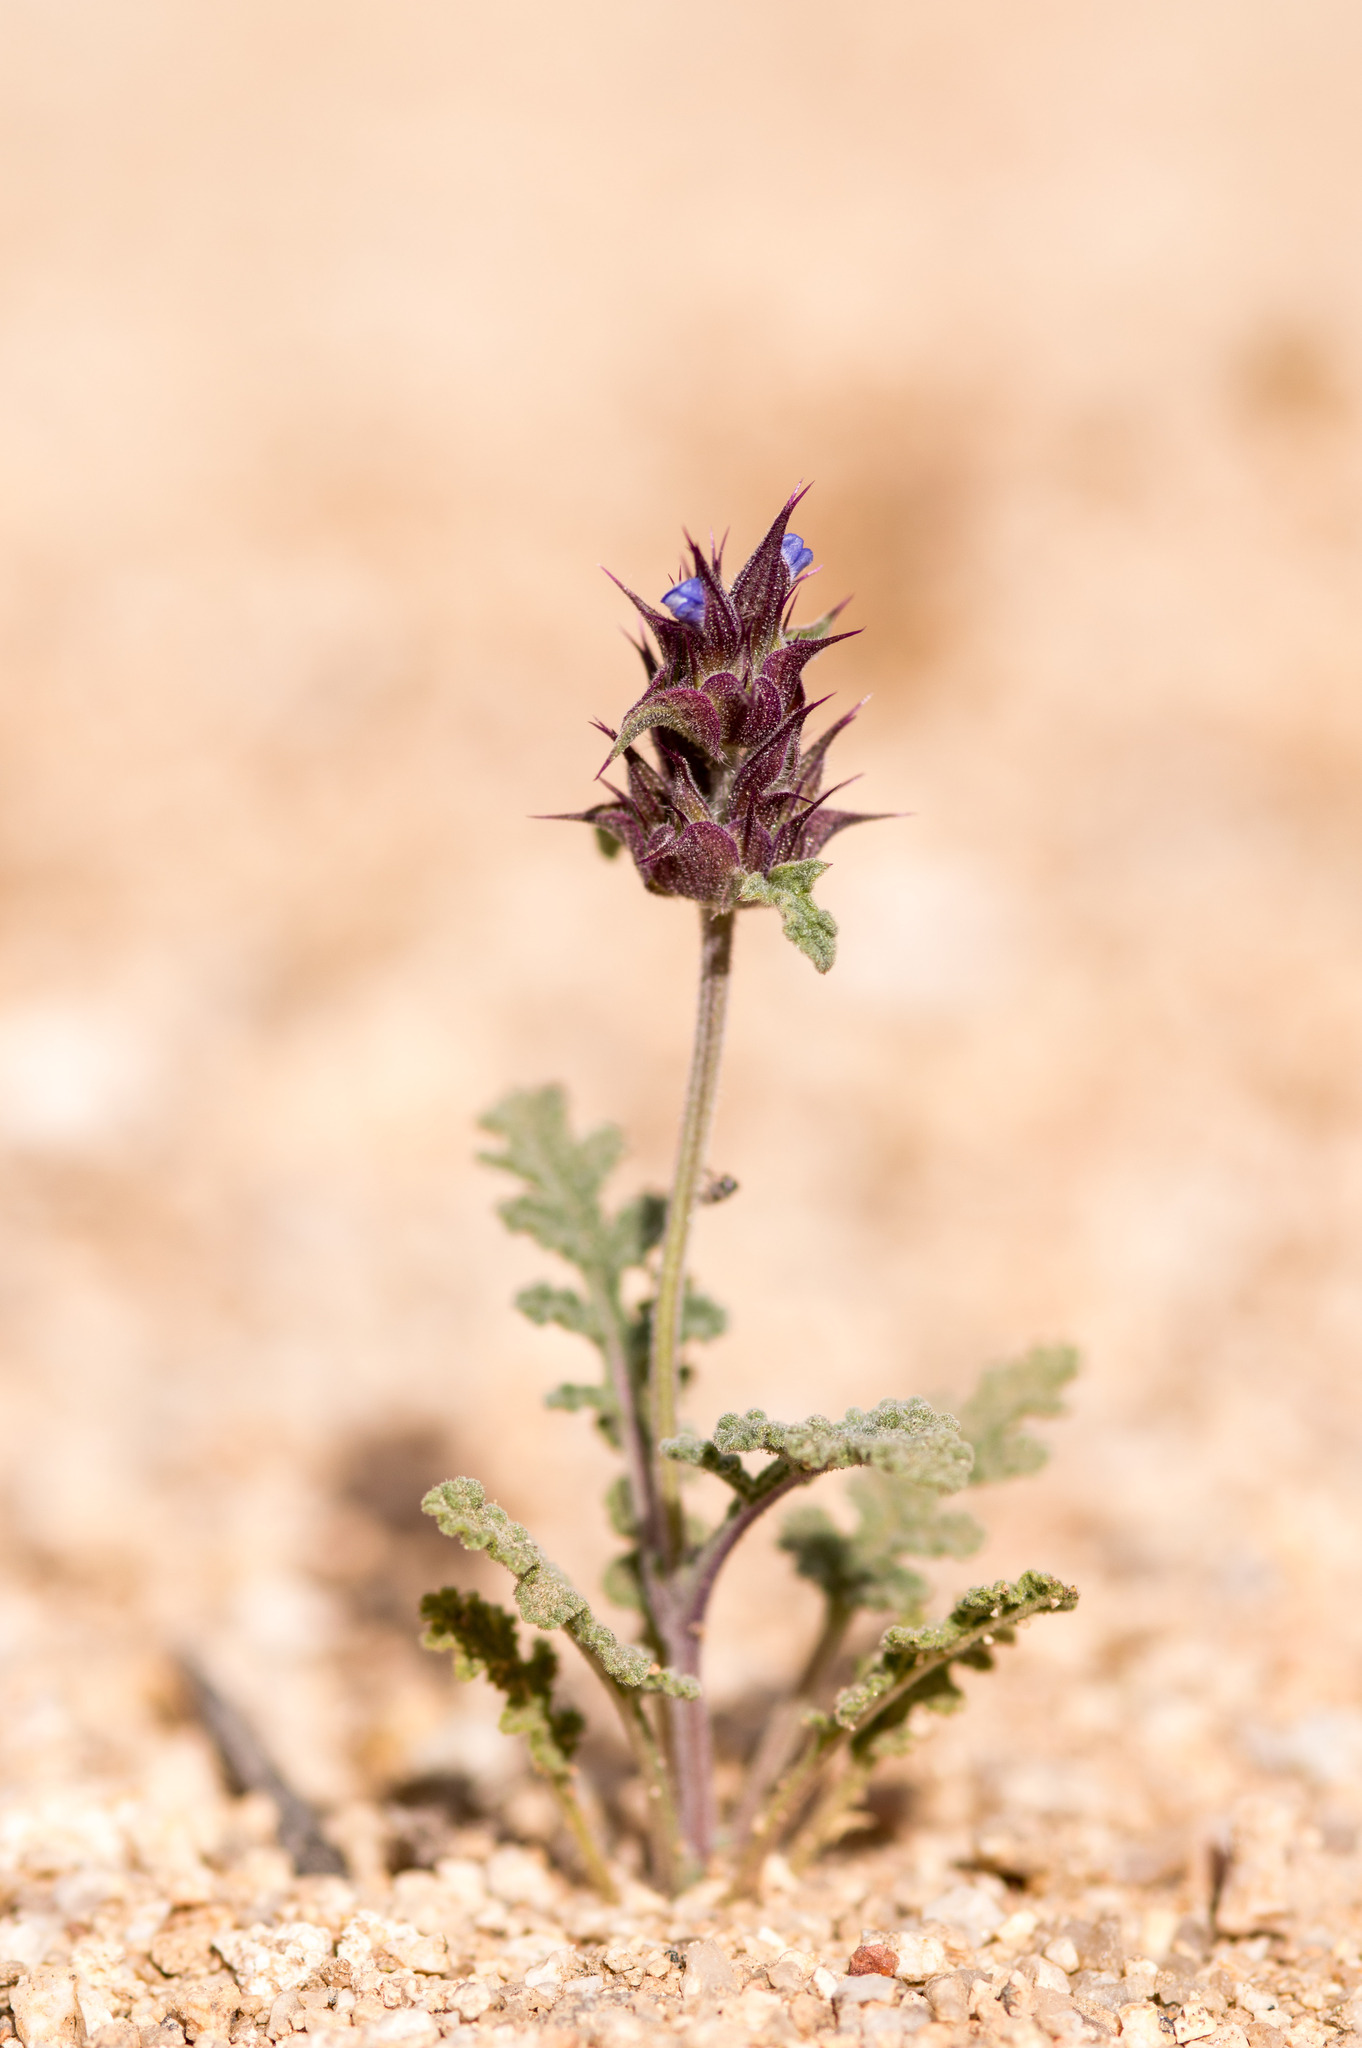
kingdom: Plantae
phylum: Tracheophyta
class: Magnoliopsida
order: Lamiales
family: Lamiaceae
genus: Salvia
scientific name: Salvia columbariae
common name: Chia
